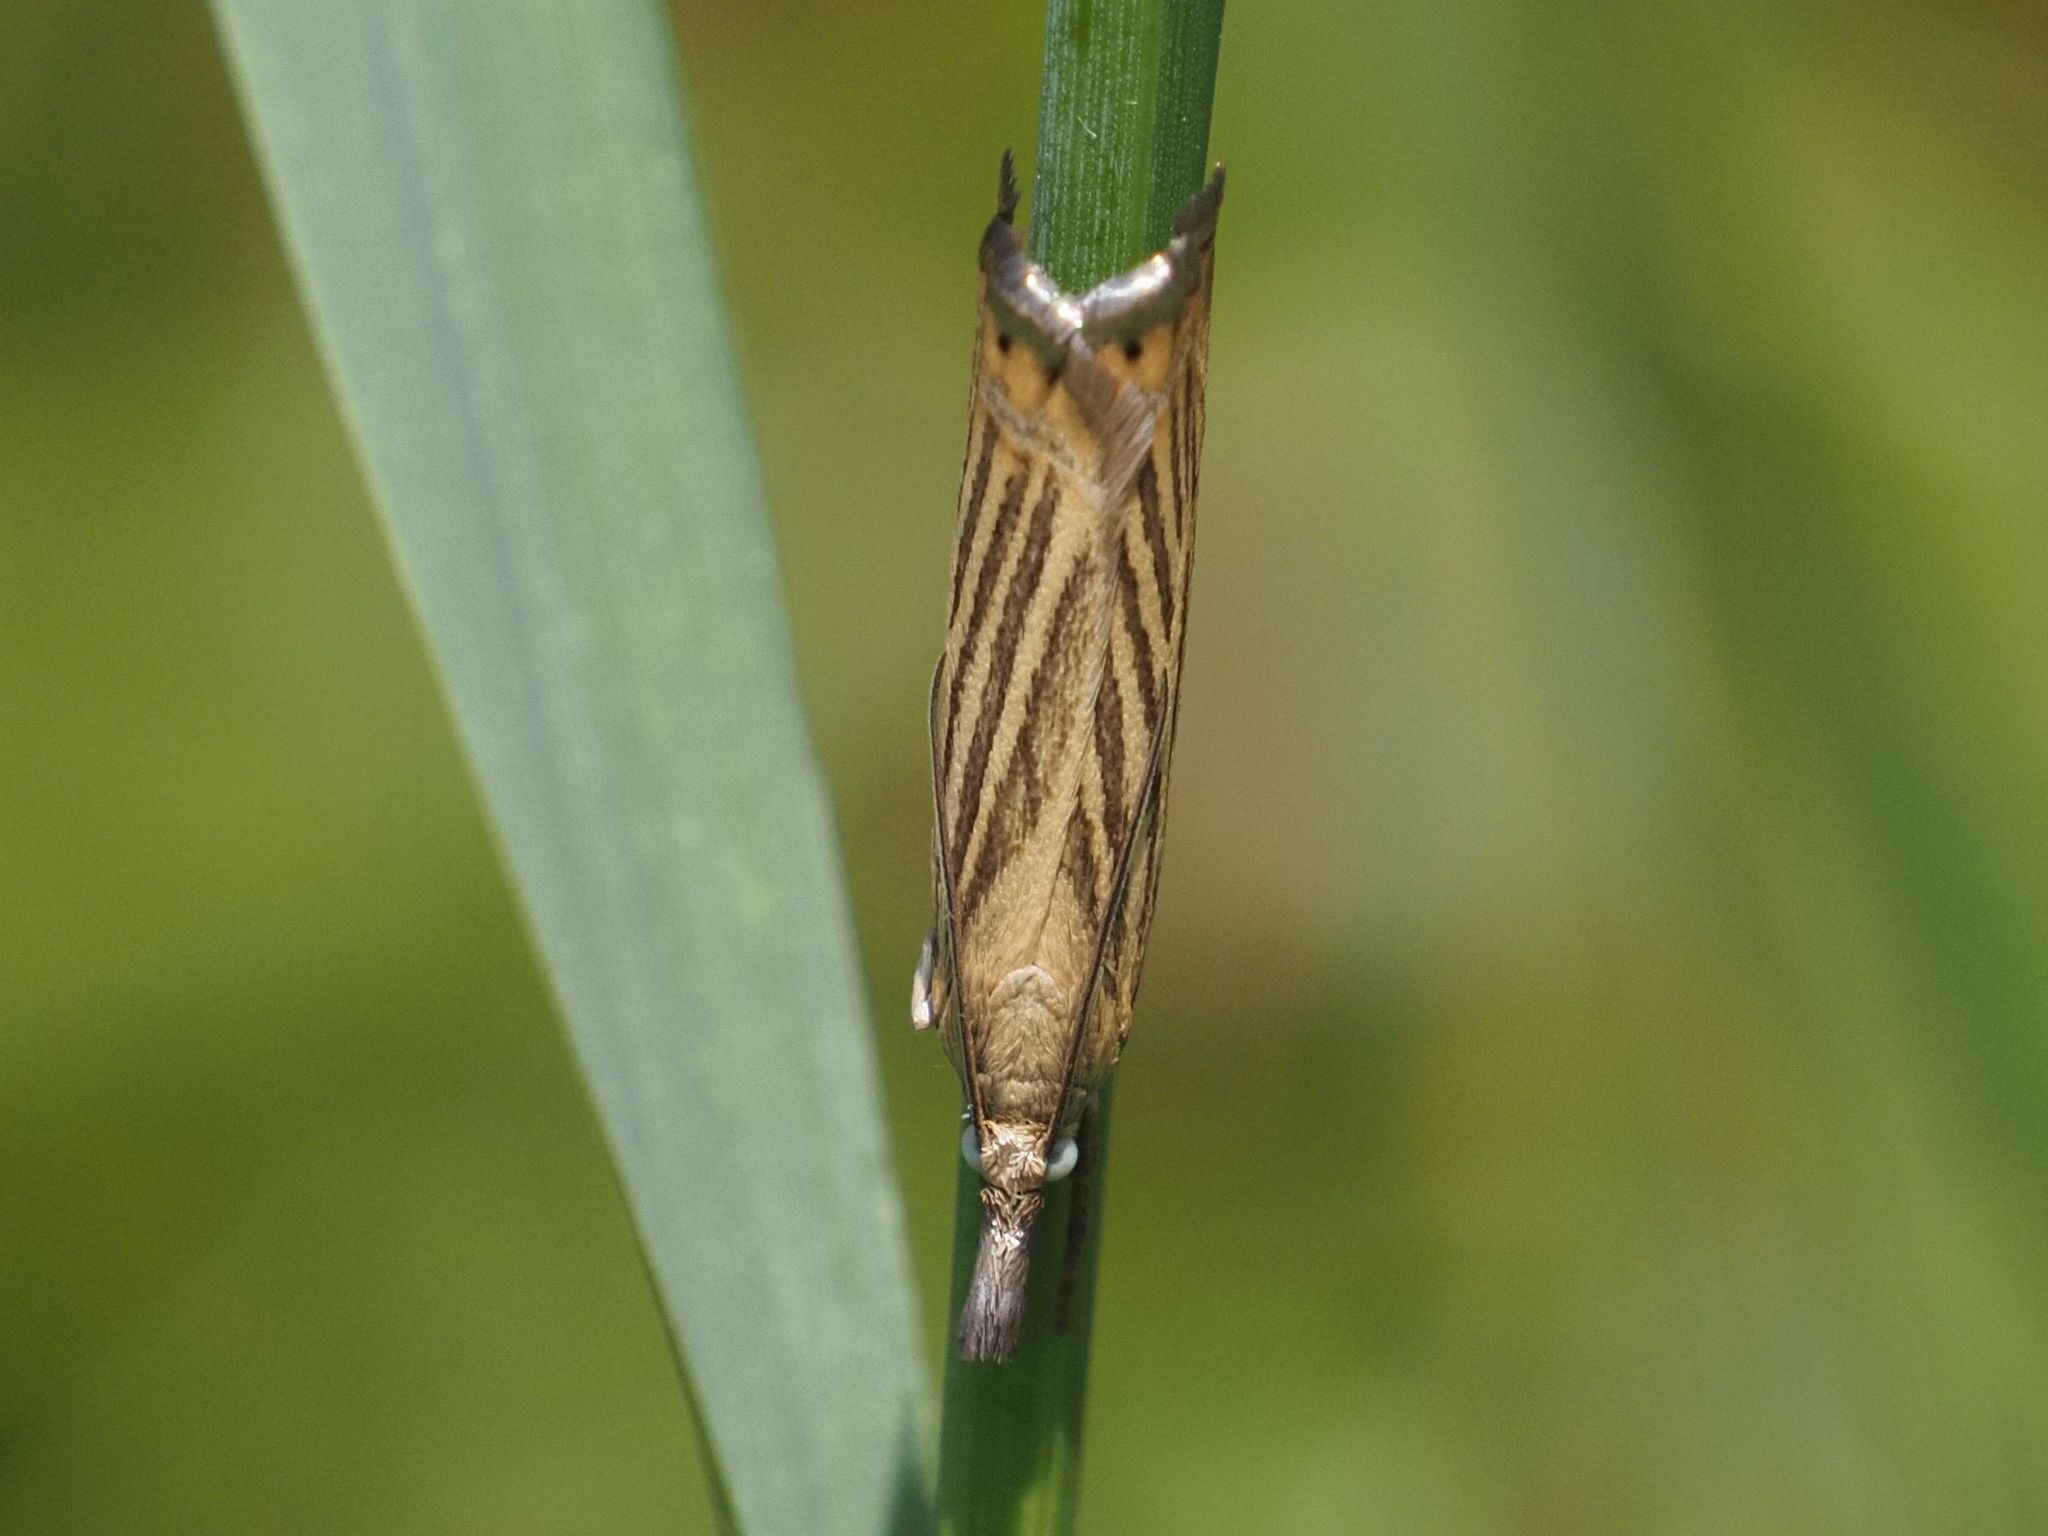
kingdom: Animalia
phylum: Arthropoda
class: Insecta
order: Lepidoptera
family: Crambidae
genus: Chrysoteuchia
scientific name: Chrysoteuchia culmella
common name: Garden grass-veneer
